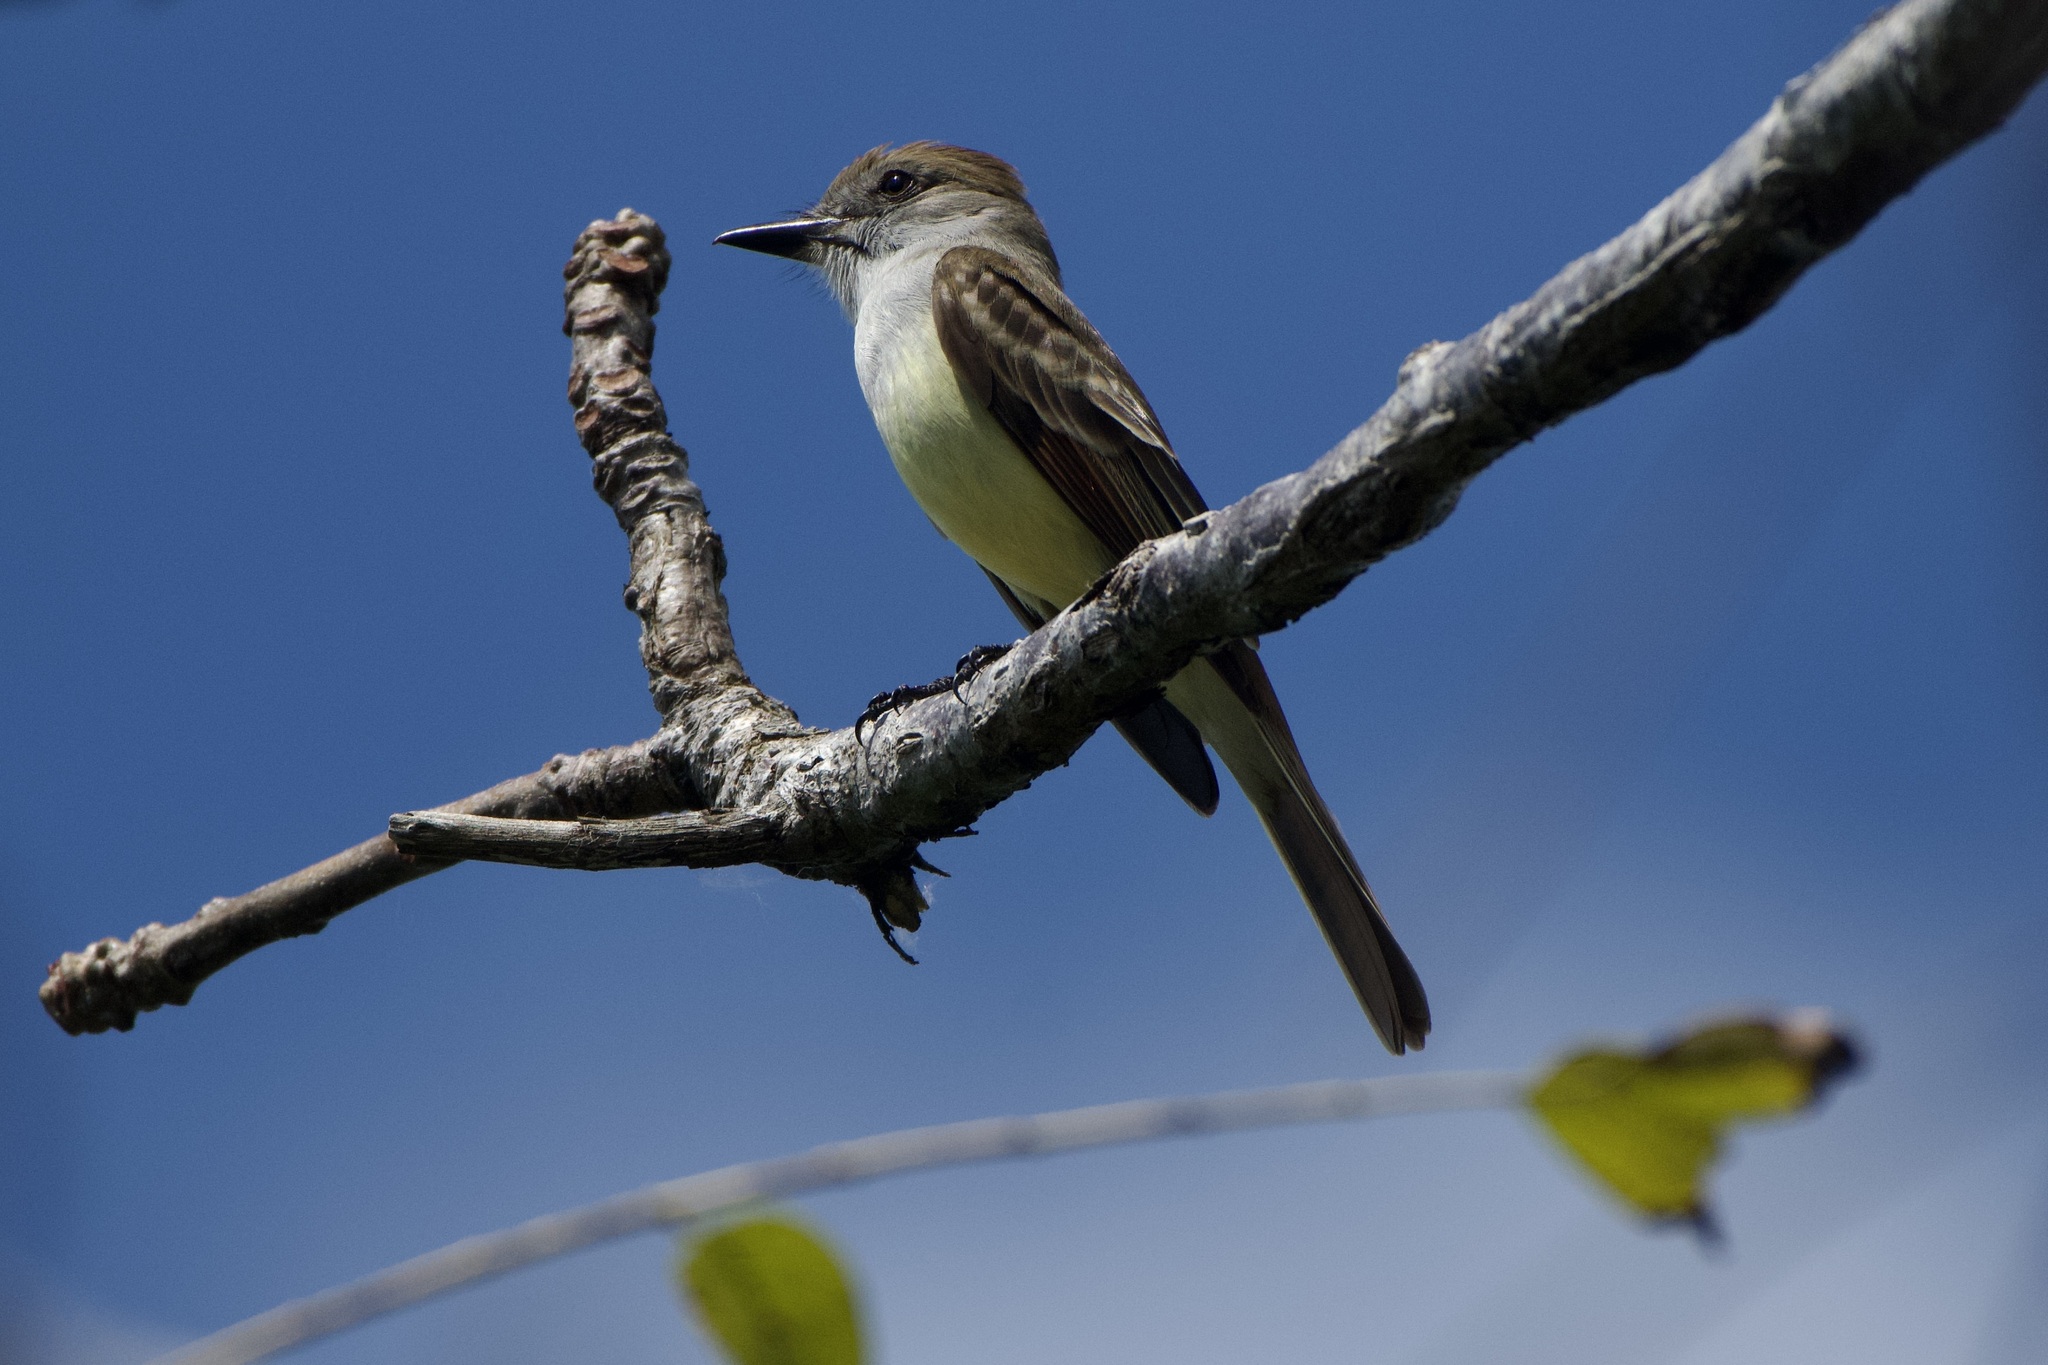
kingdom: Animalia
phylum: Chordata
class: Aves
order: Passeriformes
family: Tyrannidae
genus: Myiarchus
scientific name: Myiarchus tyrannulus
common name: Brown-crested flycatcher
